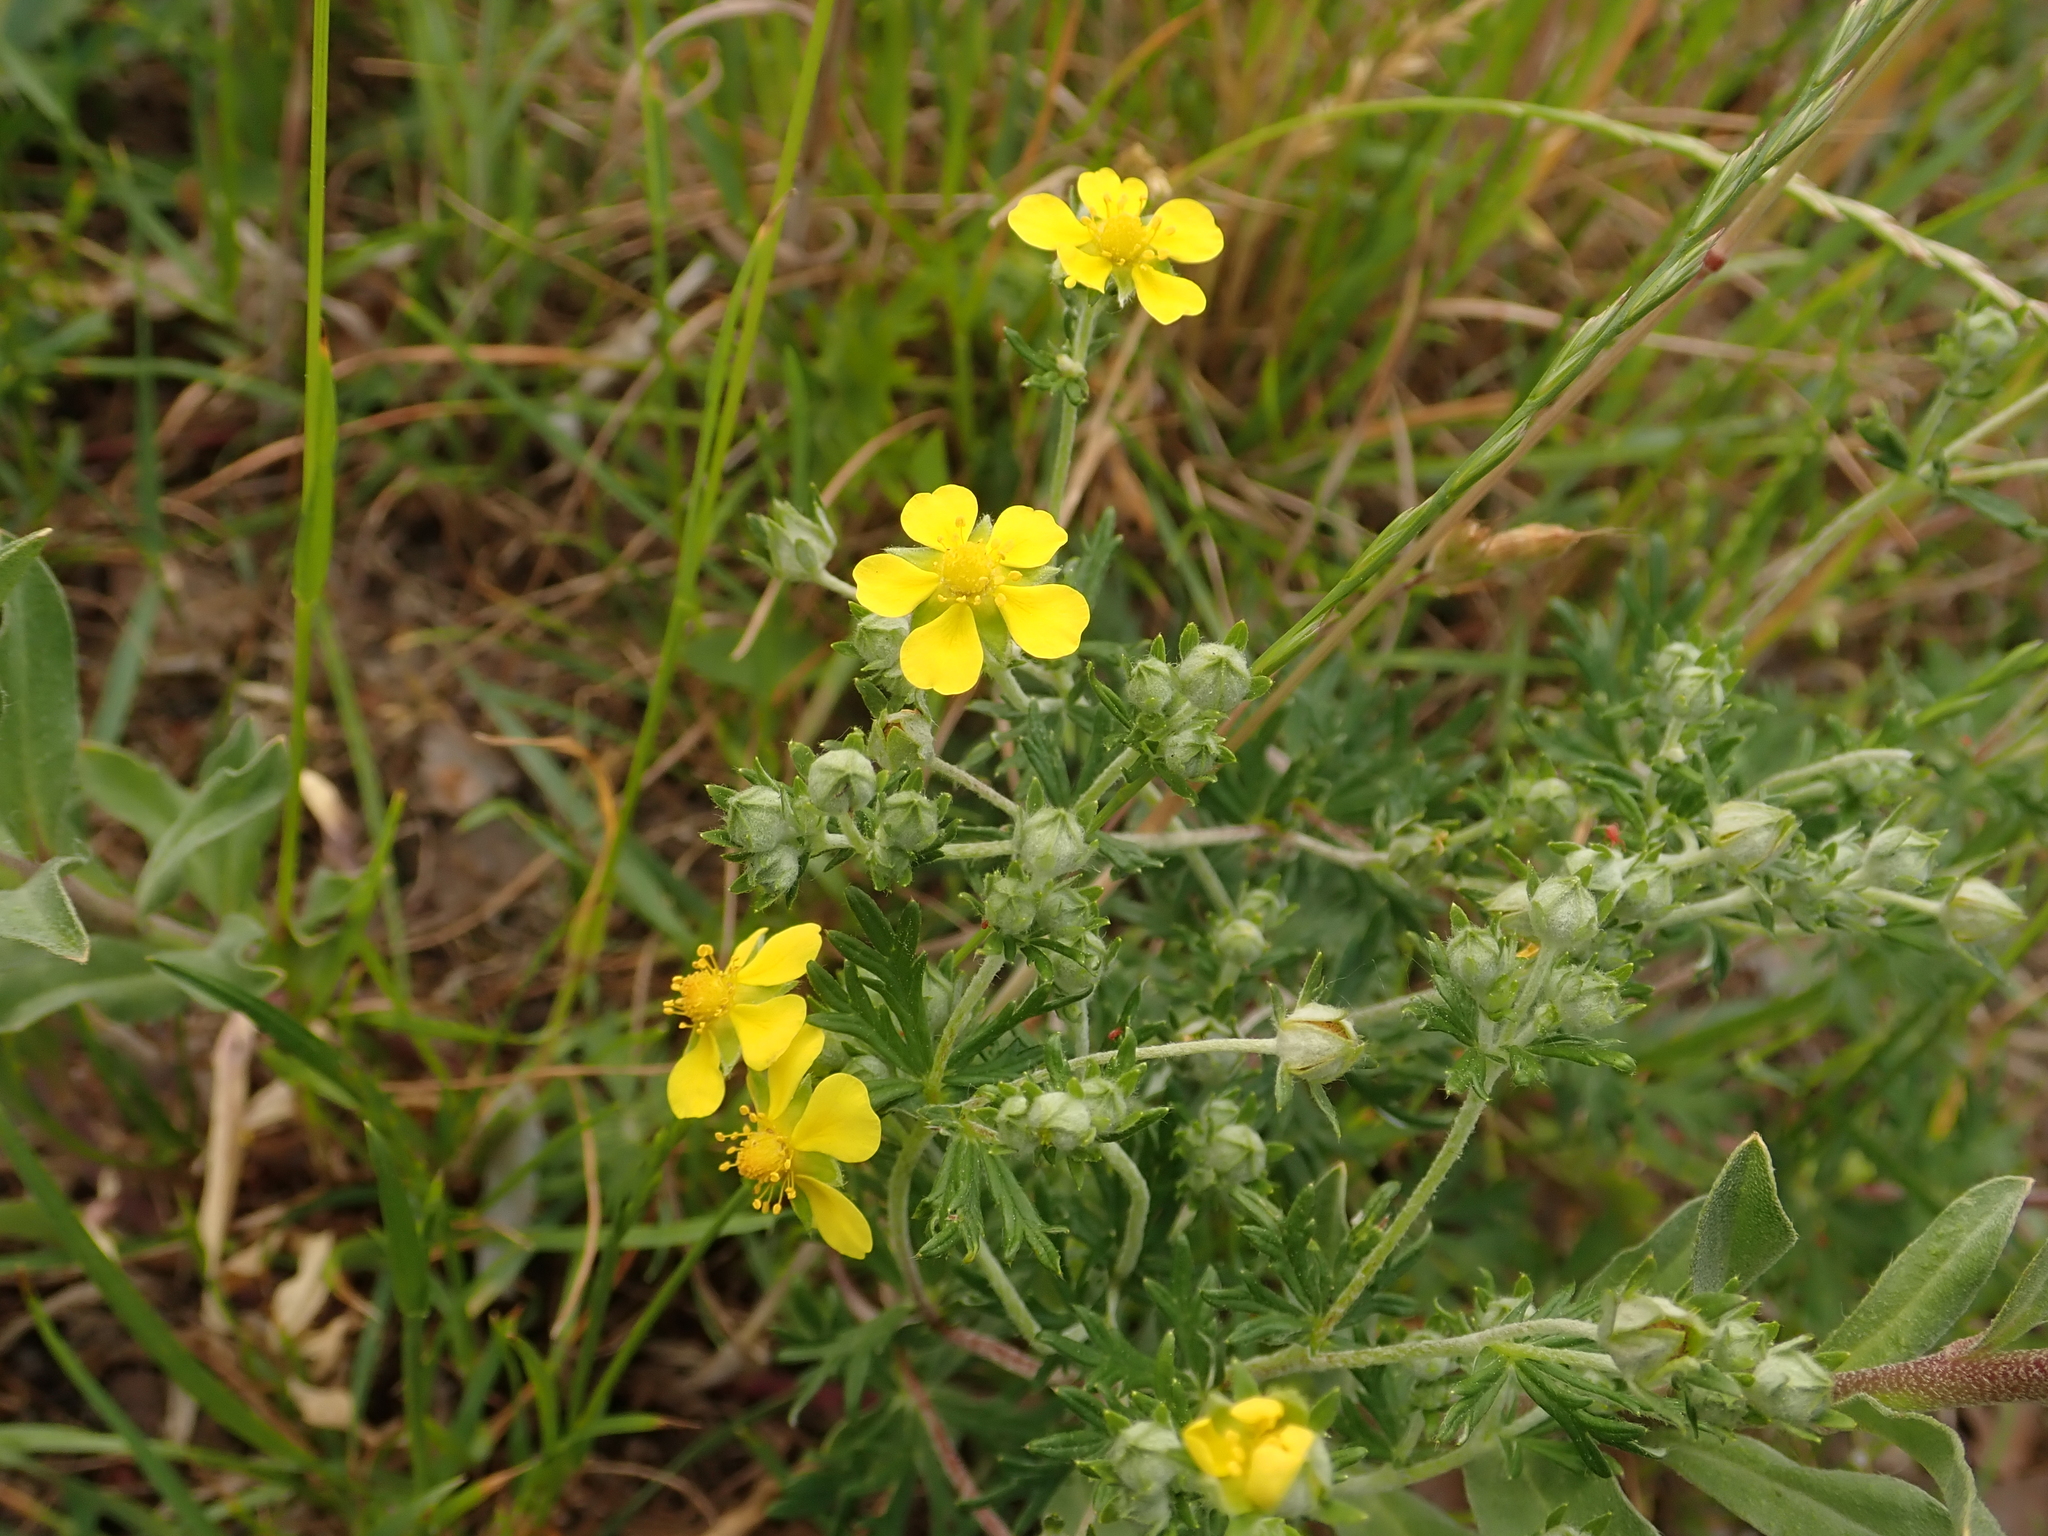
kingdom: Plantae
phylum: Tracheophyta
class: Magnoliopsida
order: Rosales
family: Rosaceae
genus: Potentilla
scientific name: Potentilla argentea
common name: Hoary cinquefoil
